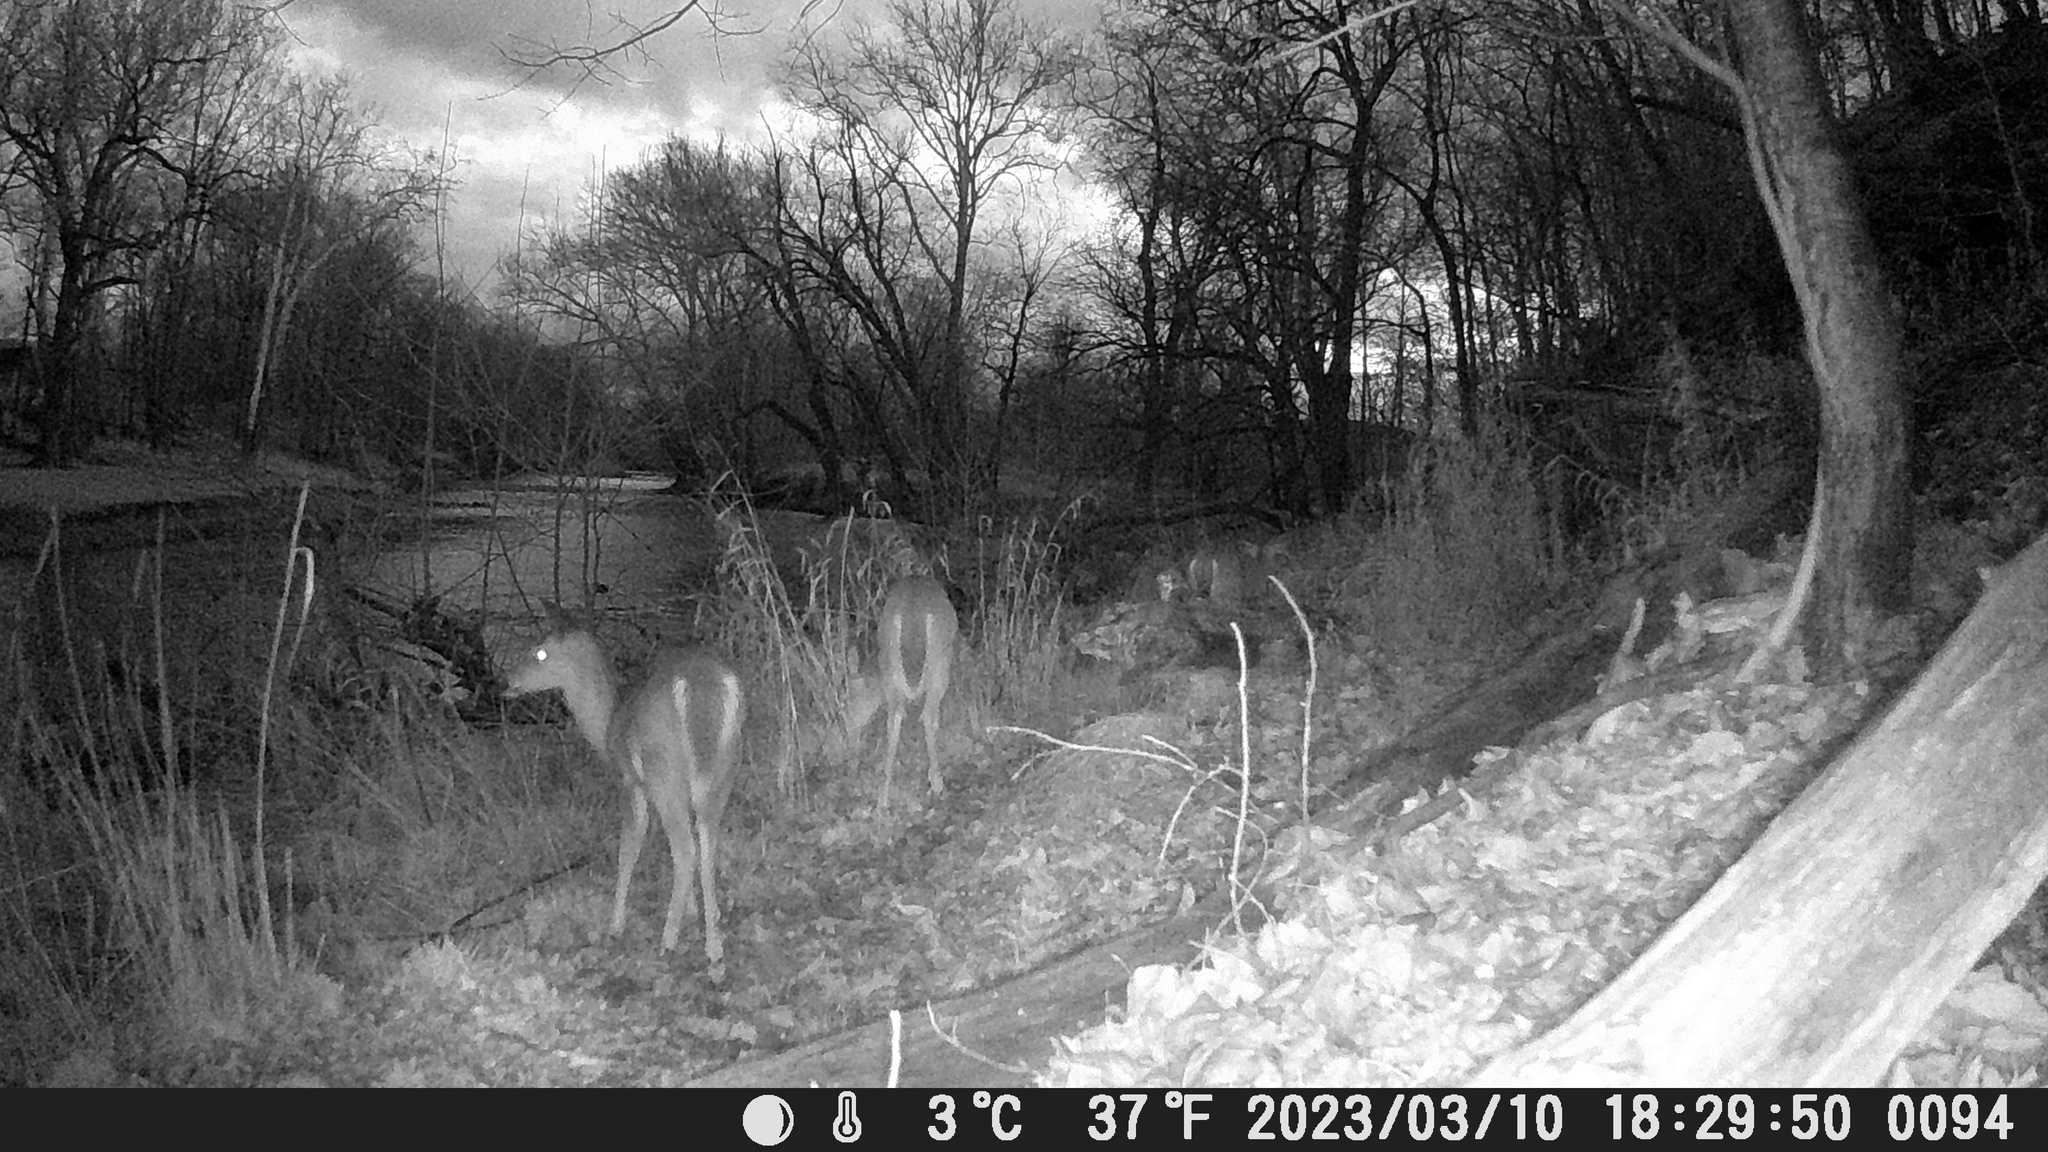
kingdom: Animalia
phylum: Chordata
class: Mammalia
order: Artiodactyla
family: Cervidae
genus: Odocoileus
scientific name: Odocoileus virginianus
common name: White-tailed deer
